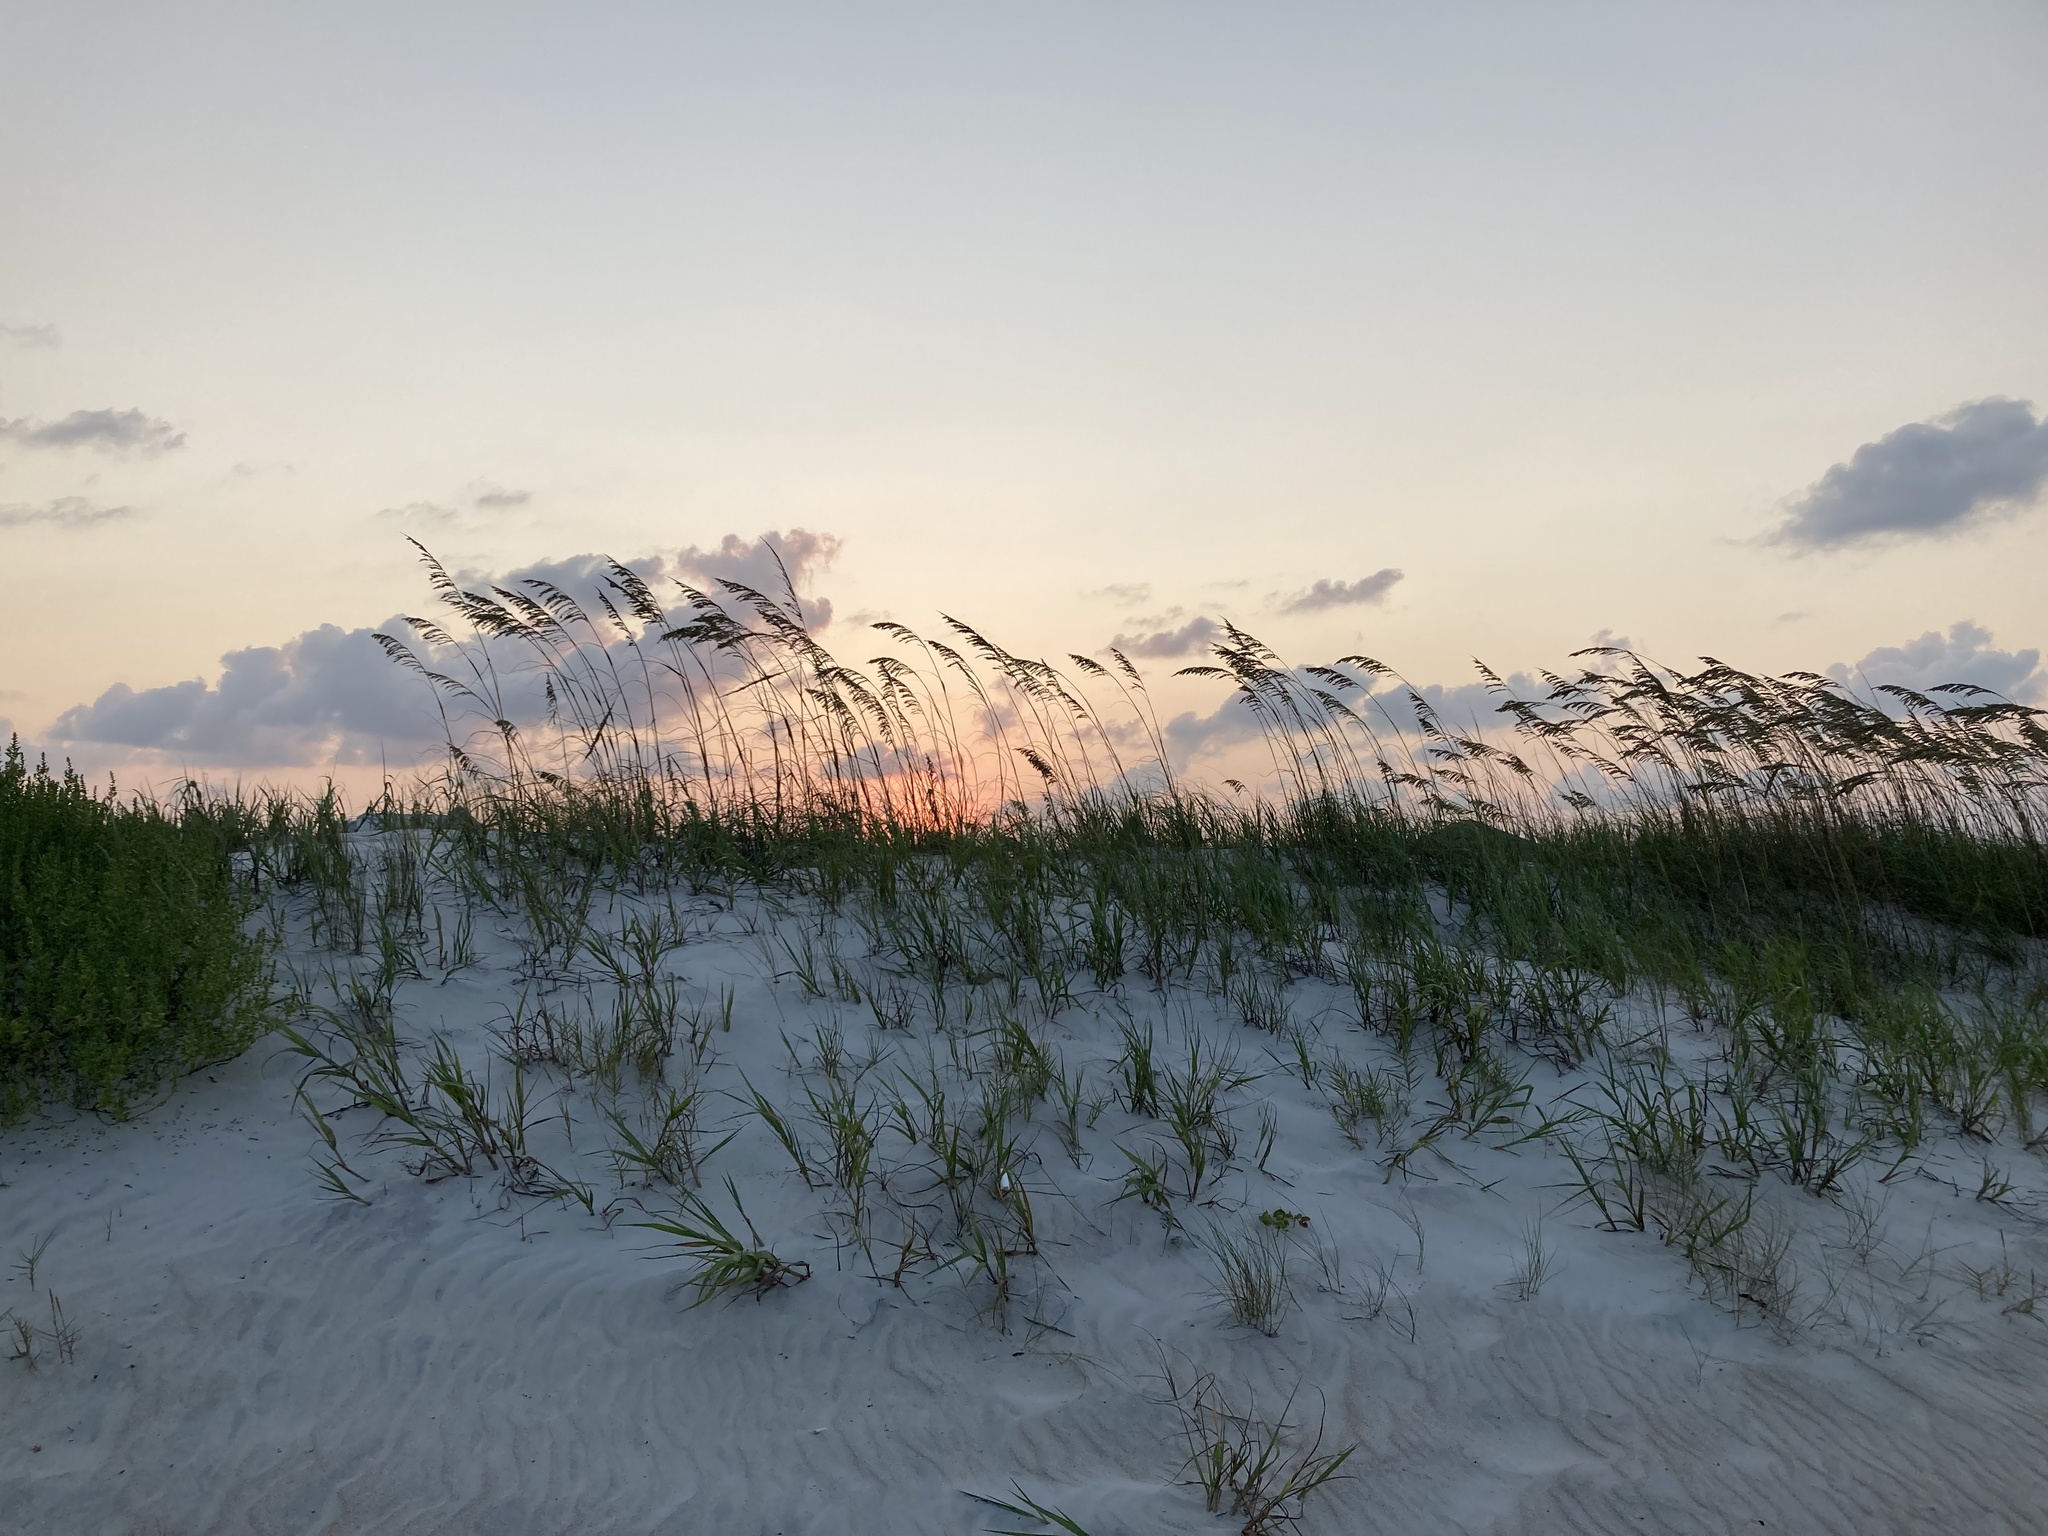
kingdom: Plantae
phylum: Tracheophyta
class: Liliopsida
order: Poales
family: Poaceae
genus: Uniola
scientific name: Uniola paniculata
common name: Seaside-oats
